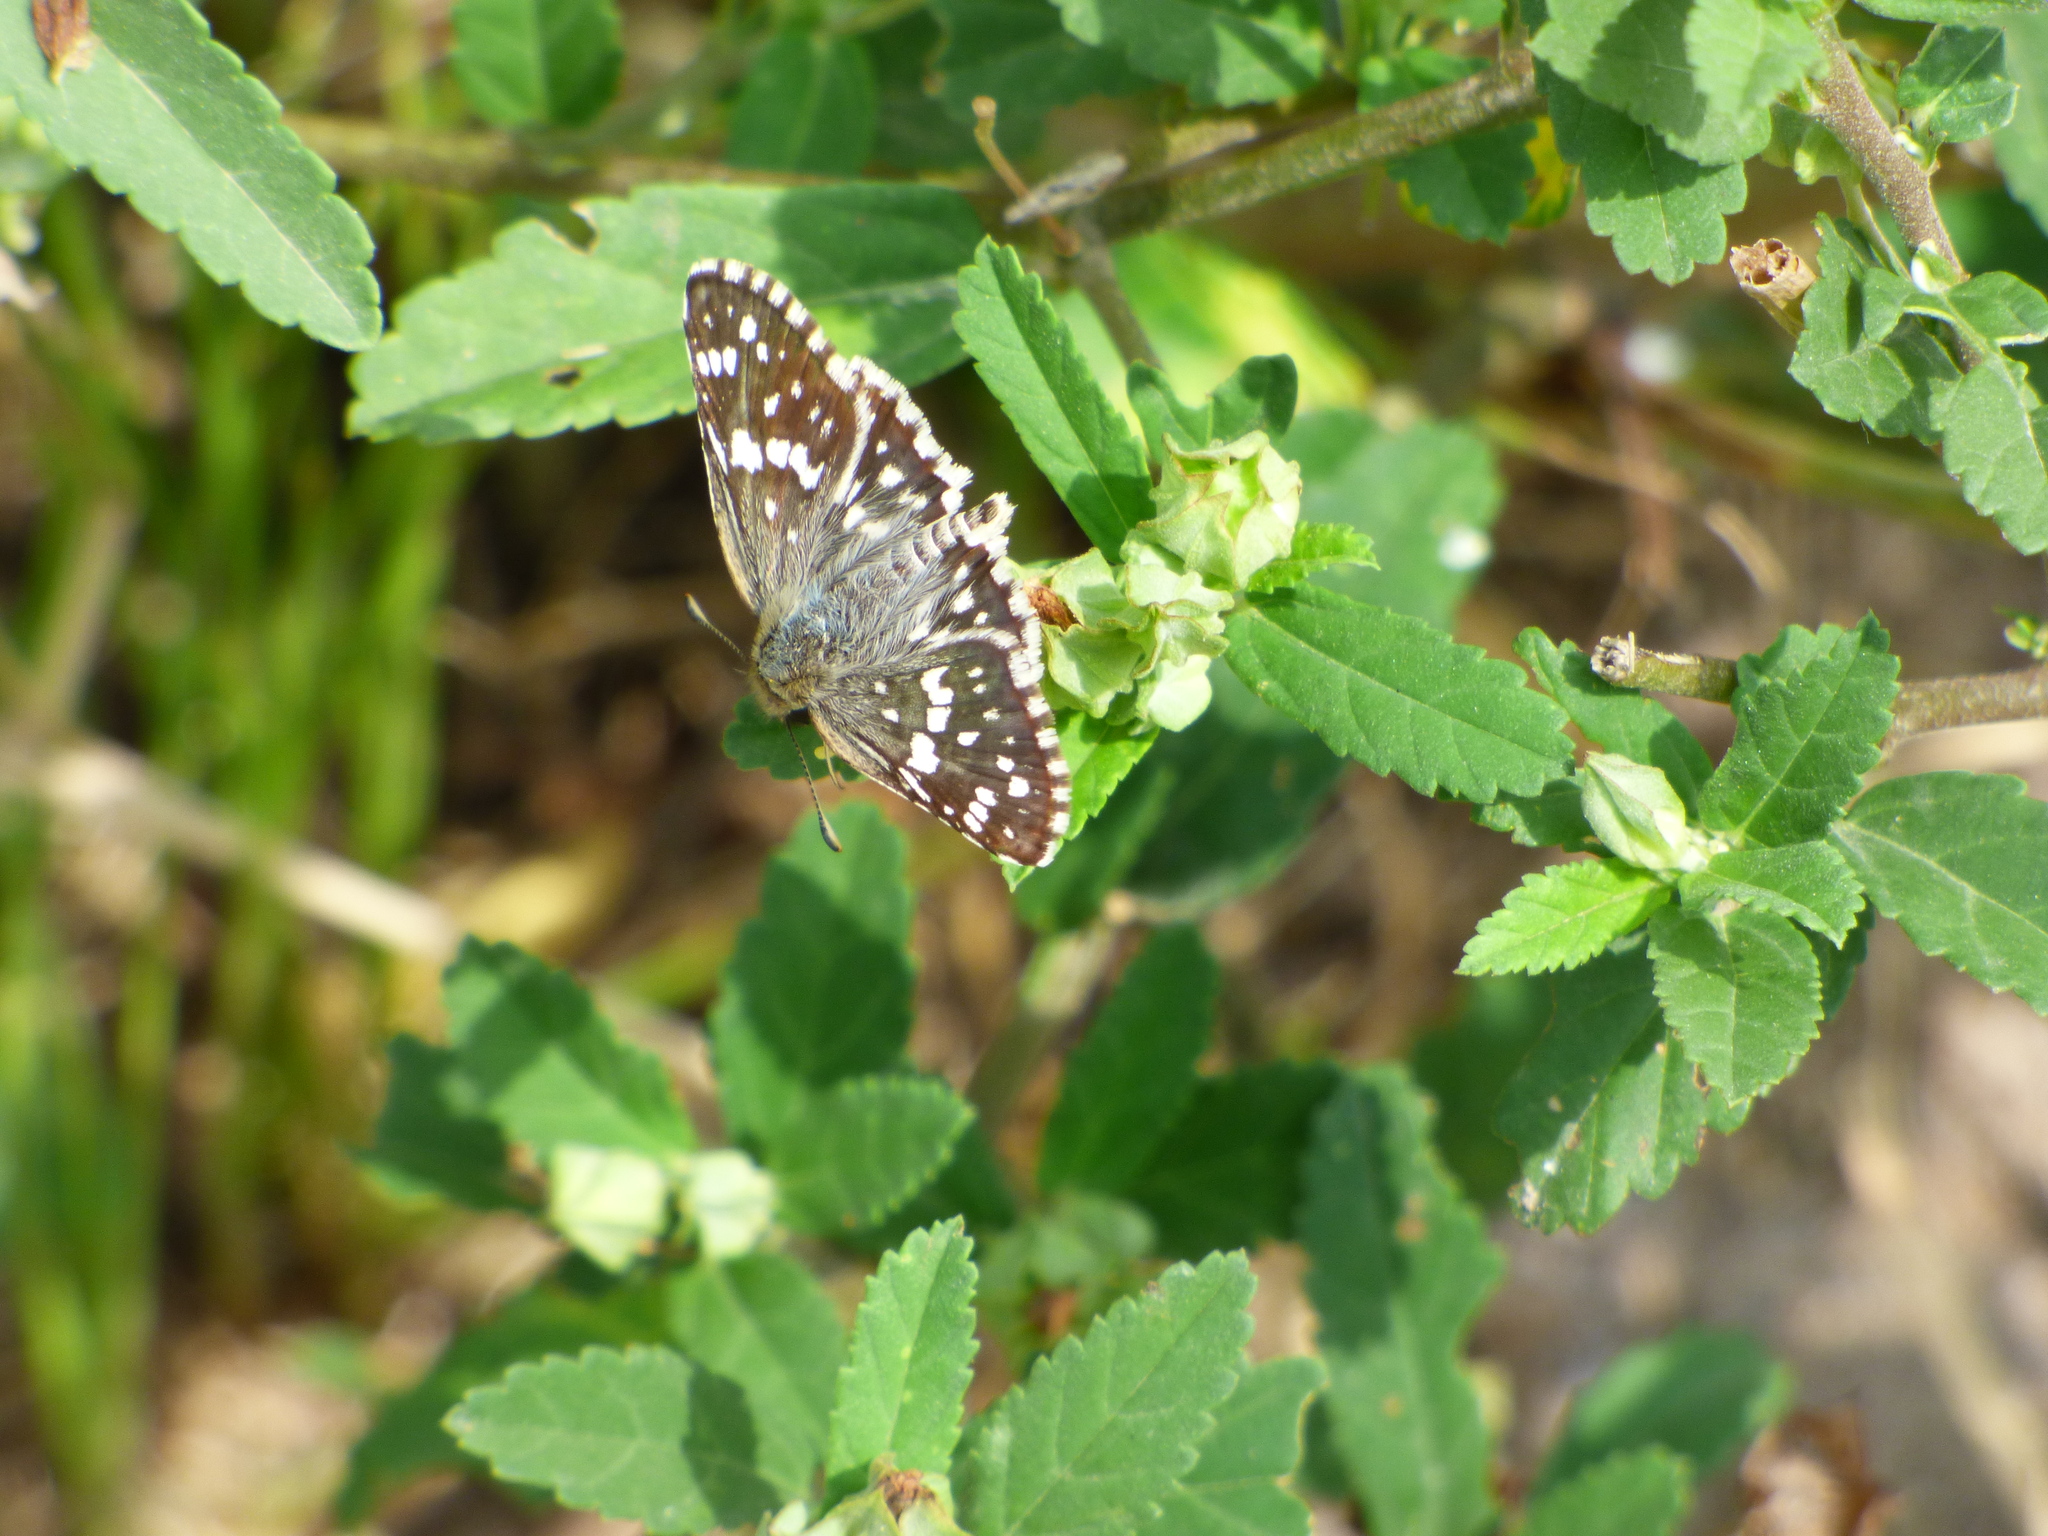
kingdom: Animalia
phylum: Arthropoda
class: Insecta
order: Lepidoptera
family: Hesperiidae
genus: Burnsius
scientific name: Burnsius orcynoides
